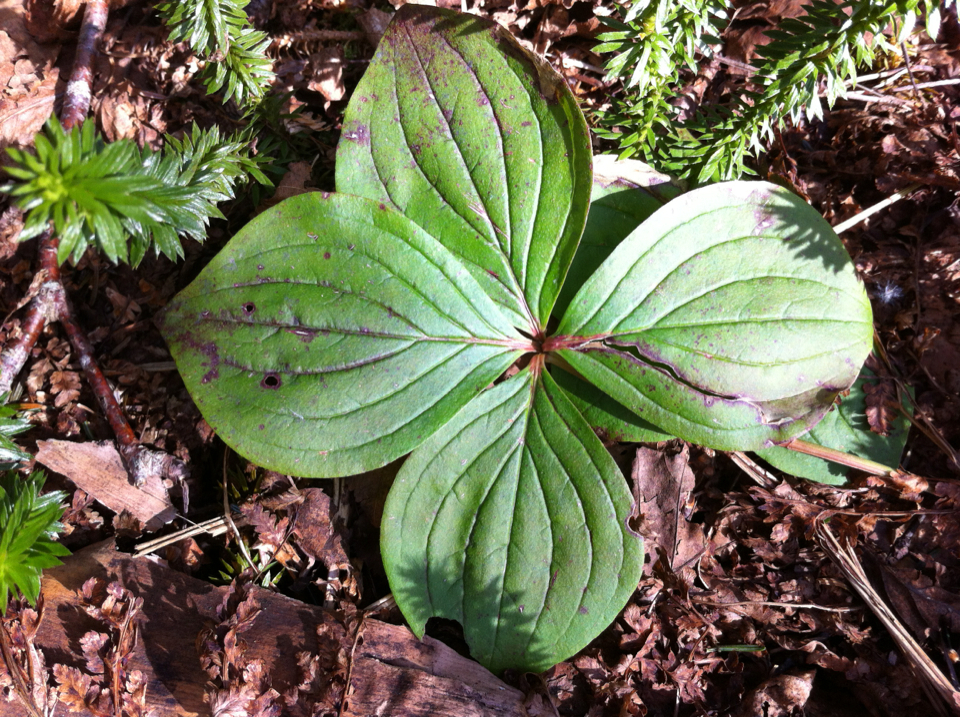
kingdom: Plantae
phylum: Tracheophyta
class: Magnoliopsida
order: Cornales
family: Cornaceae
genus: Cornus
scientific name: Cornus canadensis
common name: Creeping dogwood
